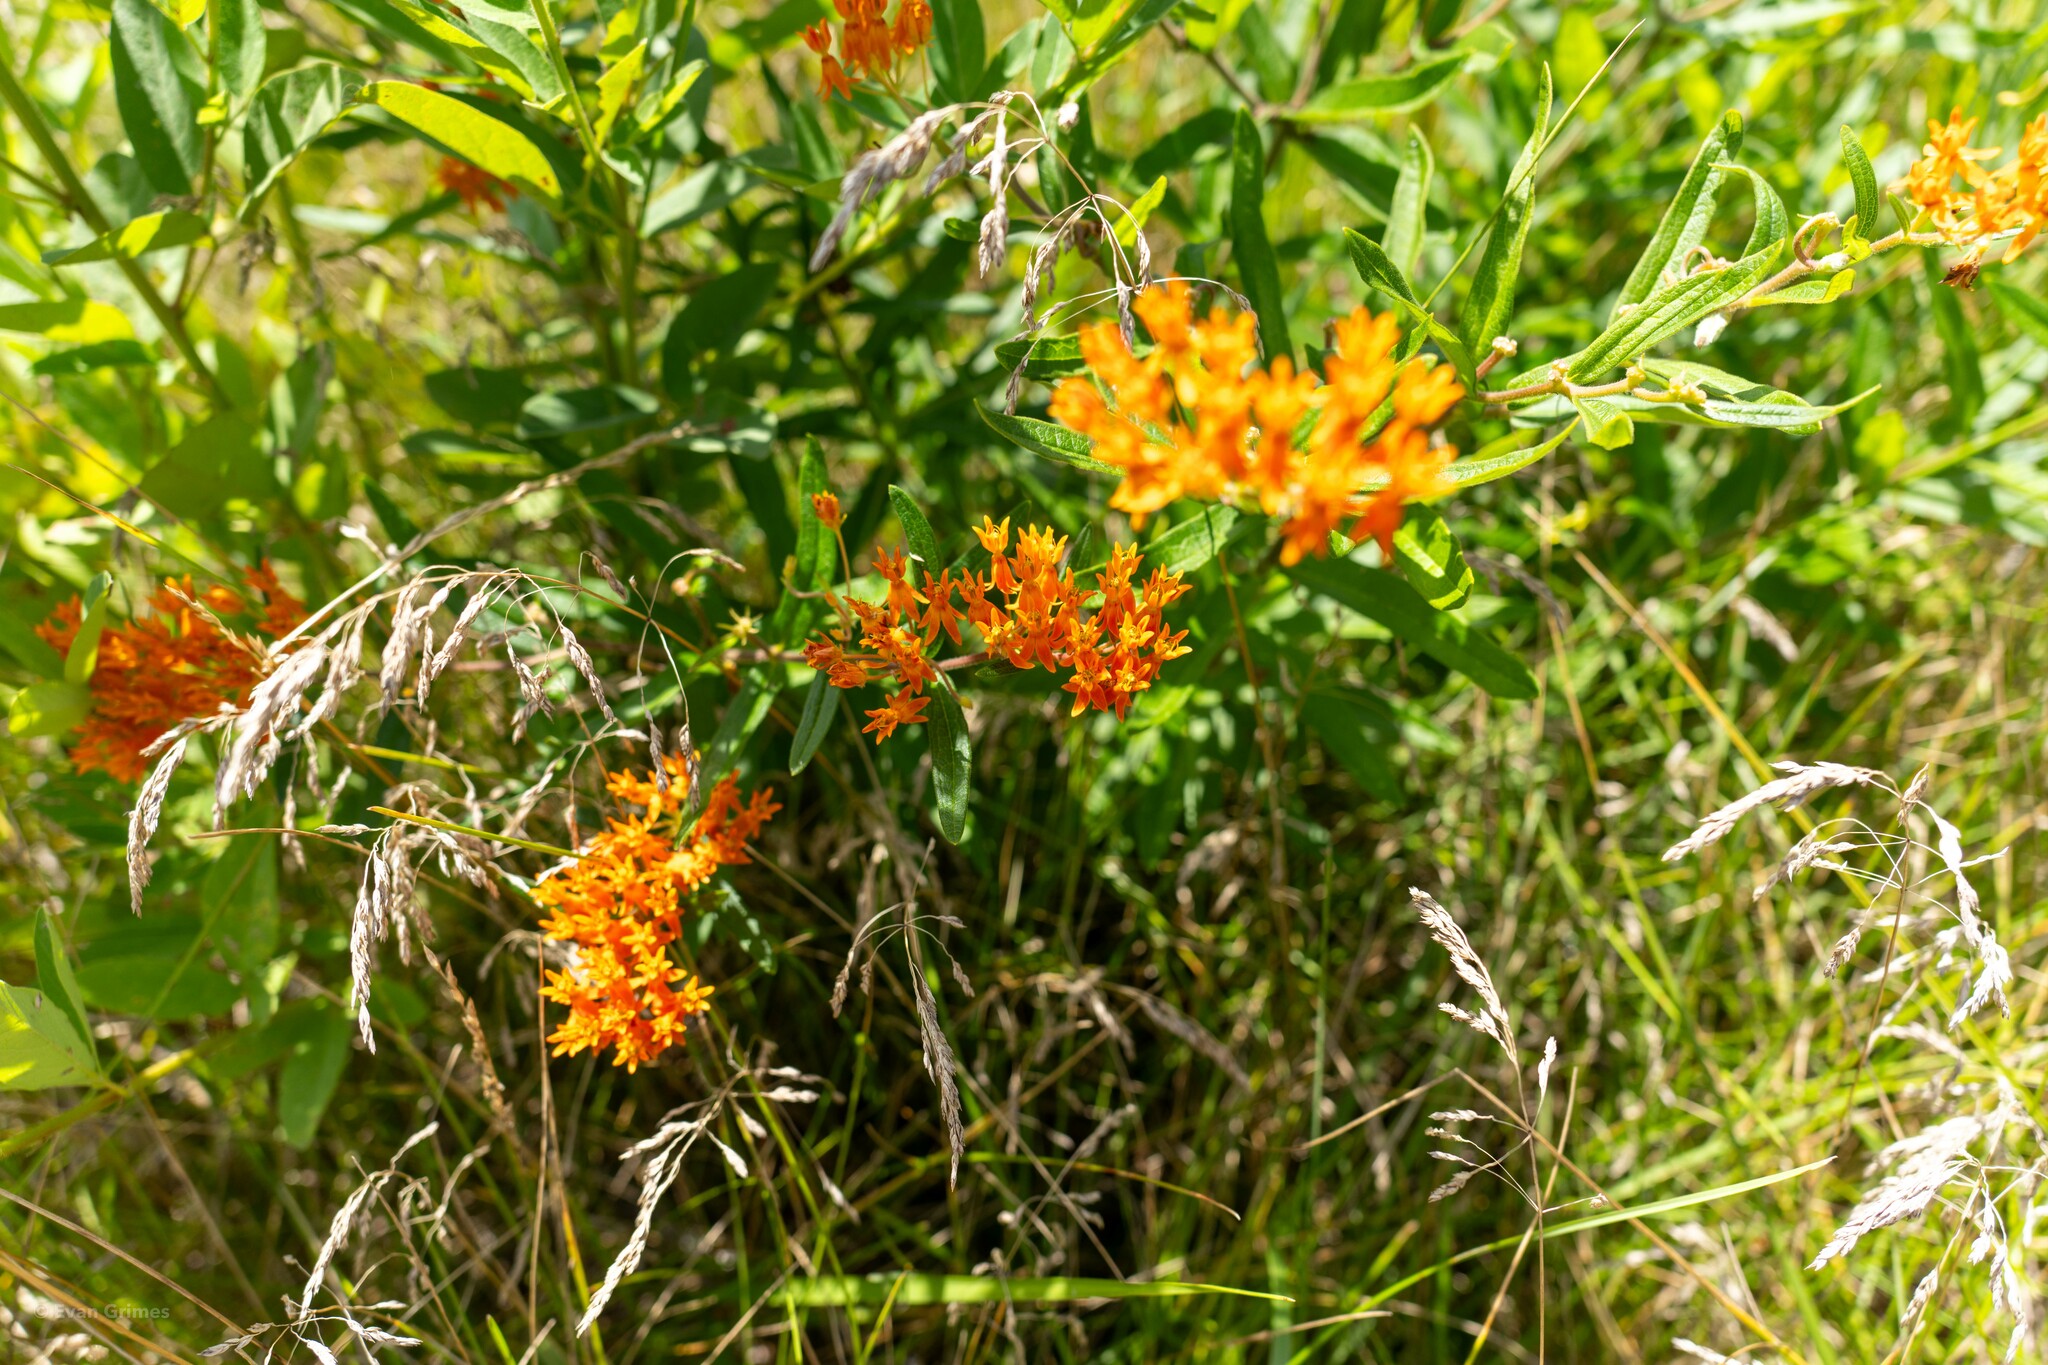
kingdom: Plantae
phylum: Tracheophyta
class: Magnoliopsida
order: Gentianales
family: Apocynaceae
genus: Asclepias
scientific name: Asclepias tuberosa
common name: Butterfly milkweed
